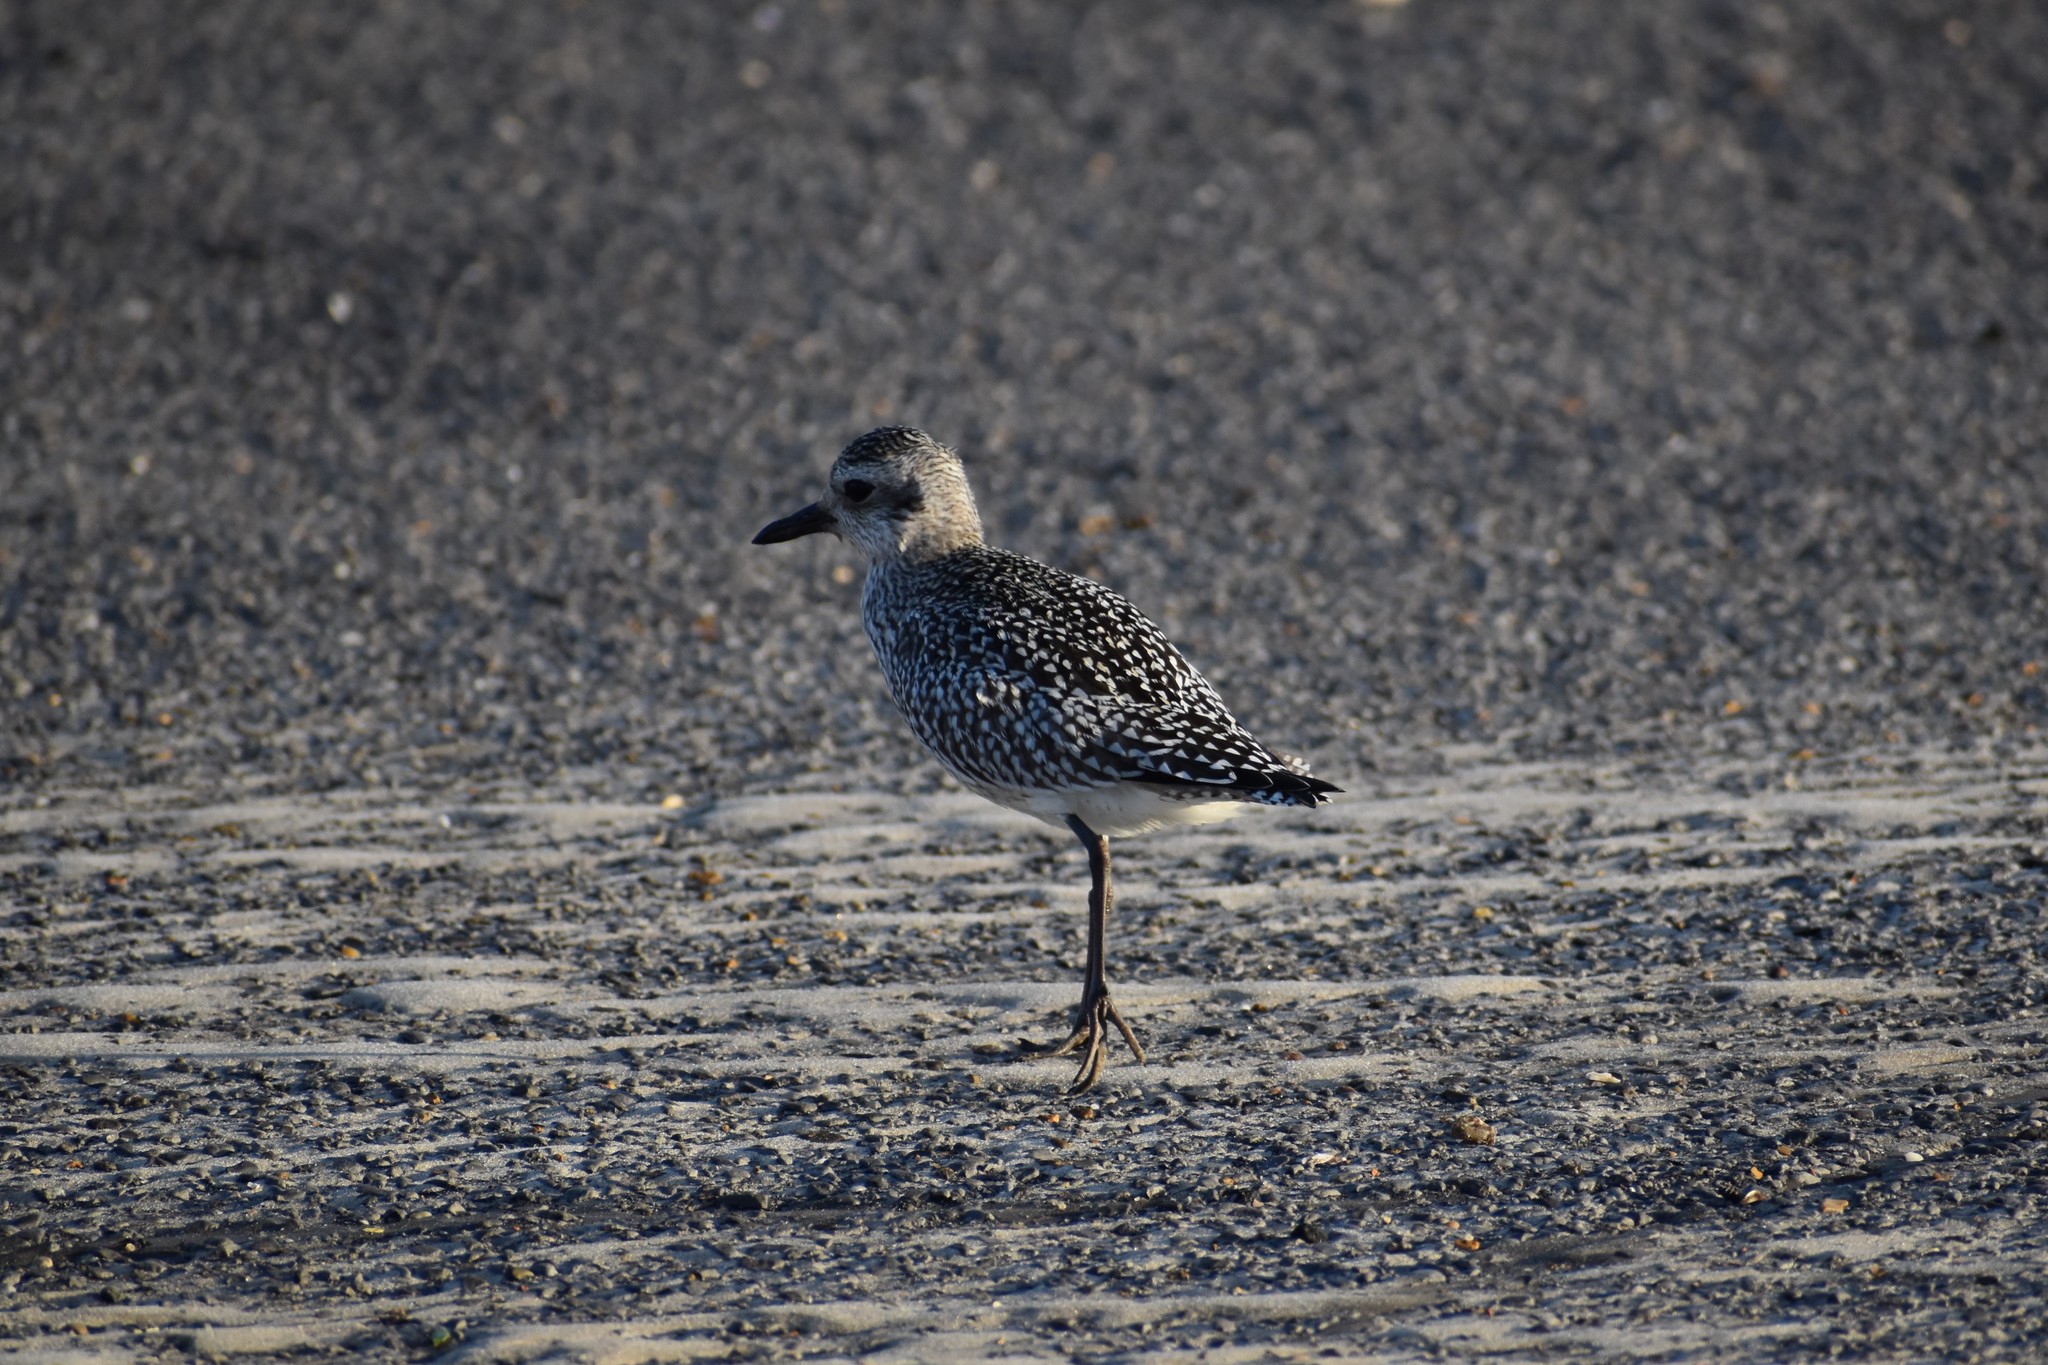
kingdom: Animalia
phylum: Chordata
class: Aves
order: Charadriiformes
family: Charadriidae
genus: Pluvialis
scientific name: Pluvialis squatarola
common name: Grey plover
